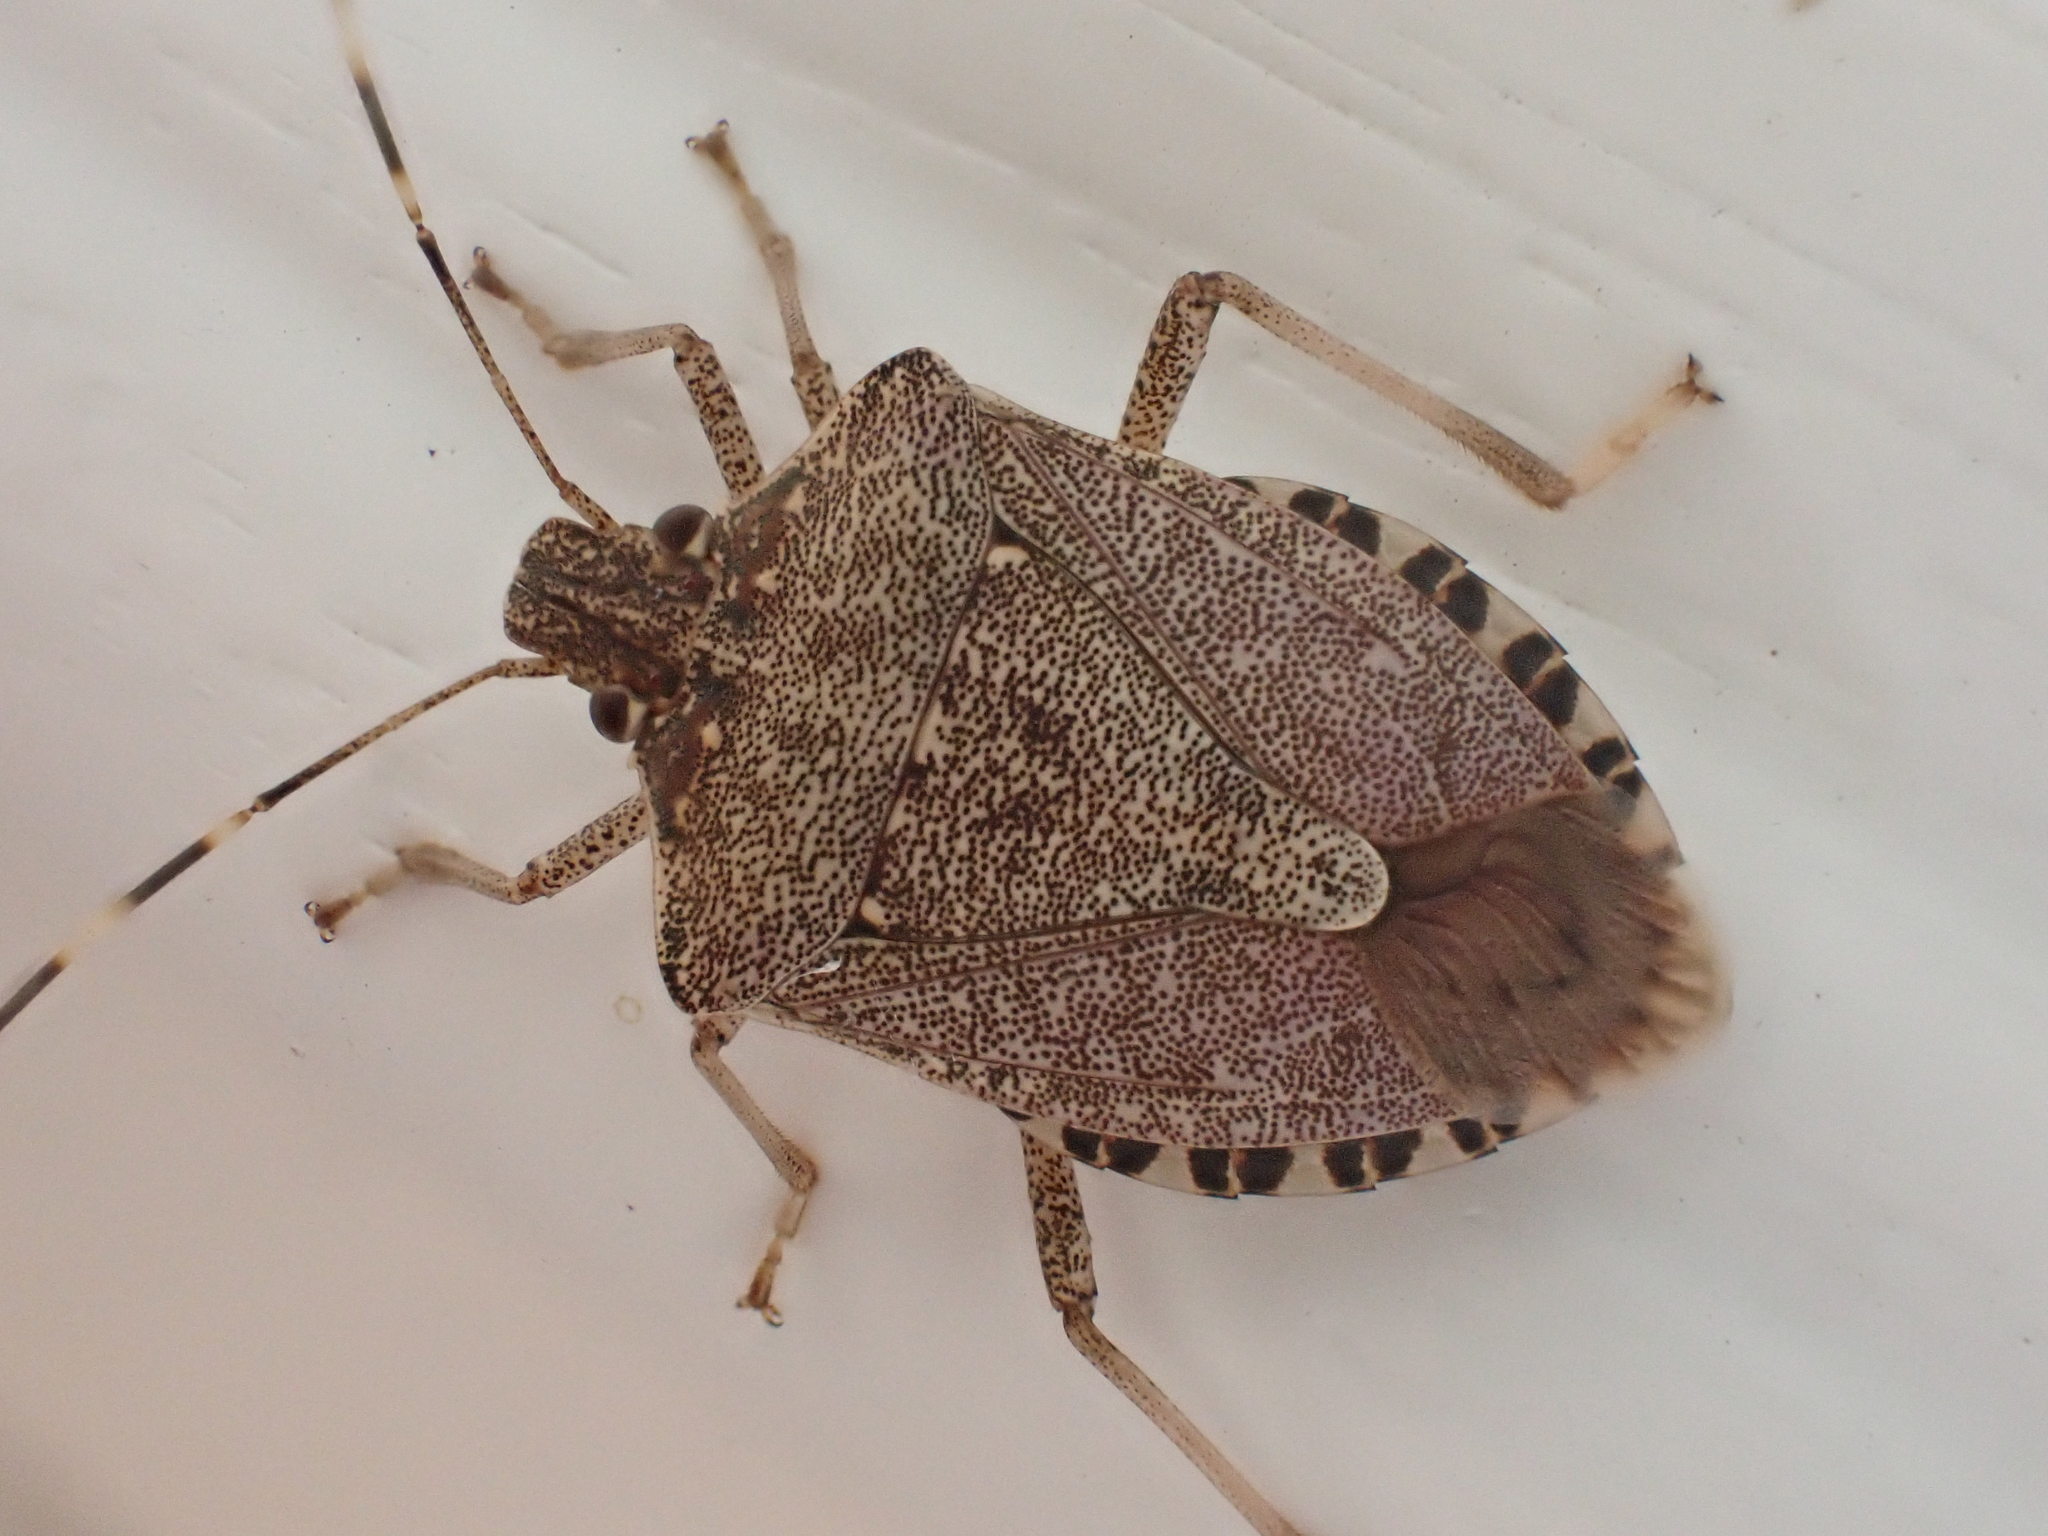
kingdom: Animalia
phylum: Arthropoda
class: Insecta
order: Hemiptera
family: Pentatomidae
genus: Halyomorpha
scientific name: Halyomorpha halys
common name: Brown marmorated stink bug
